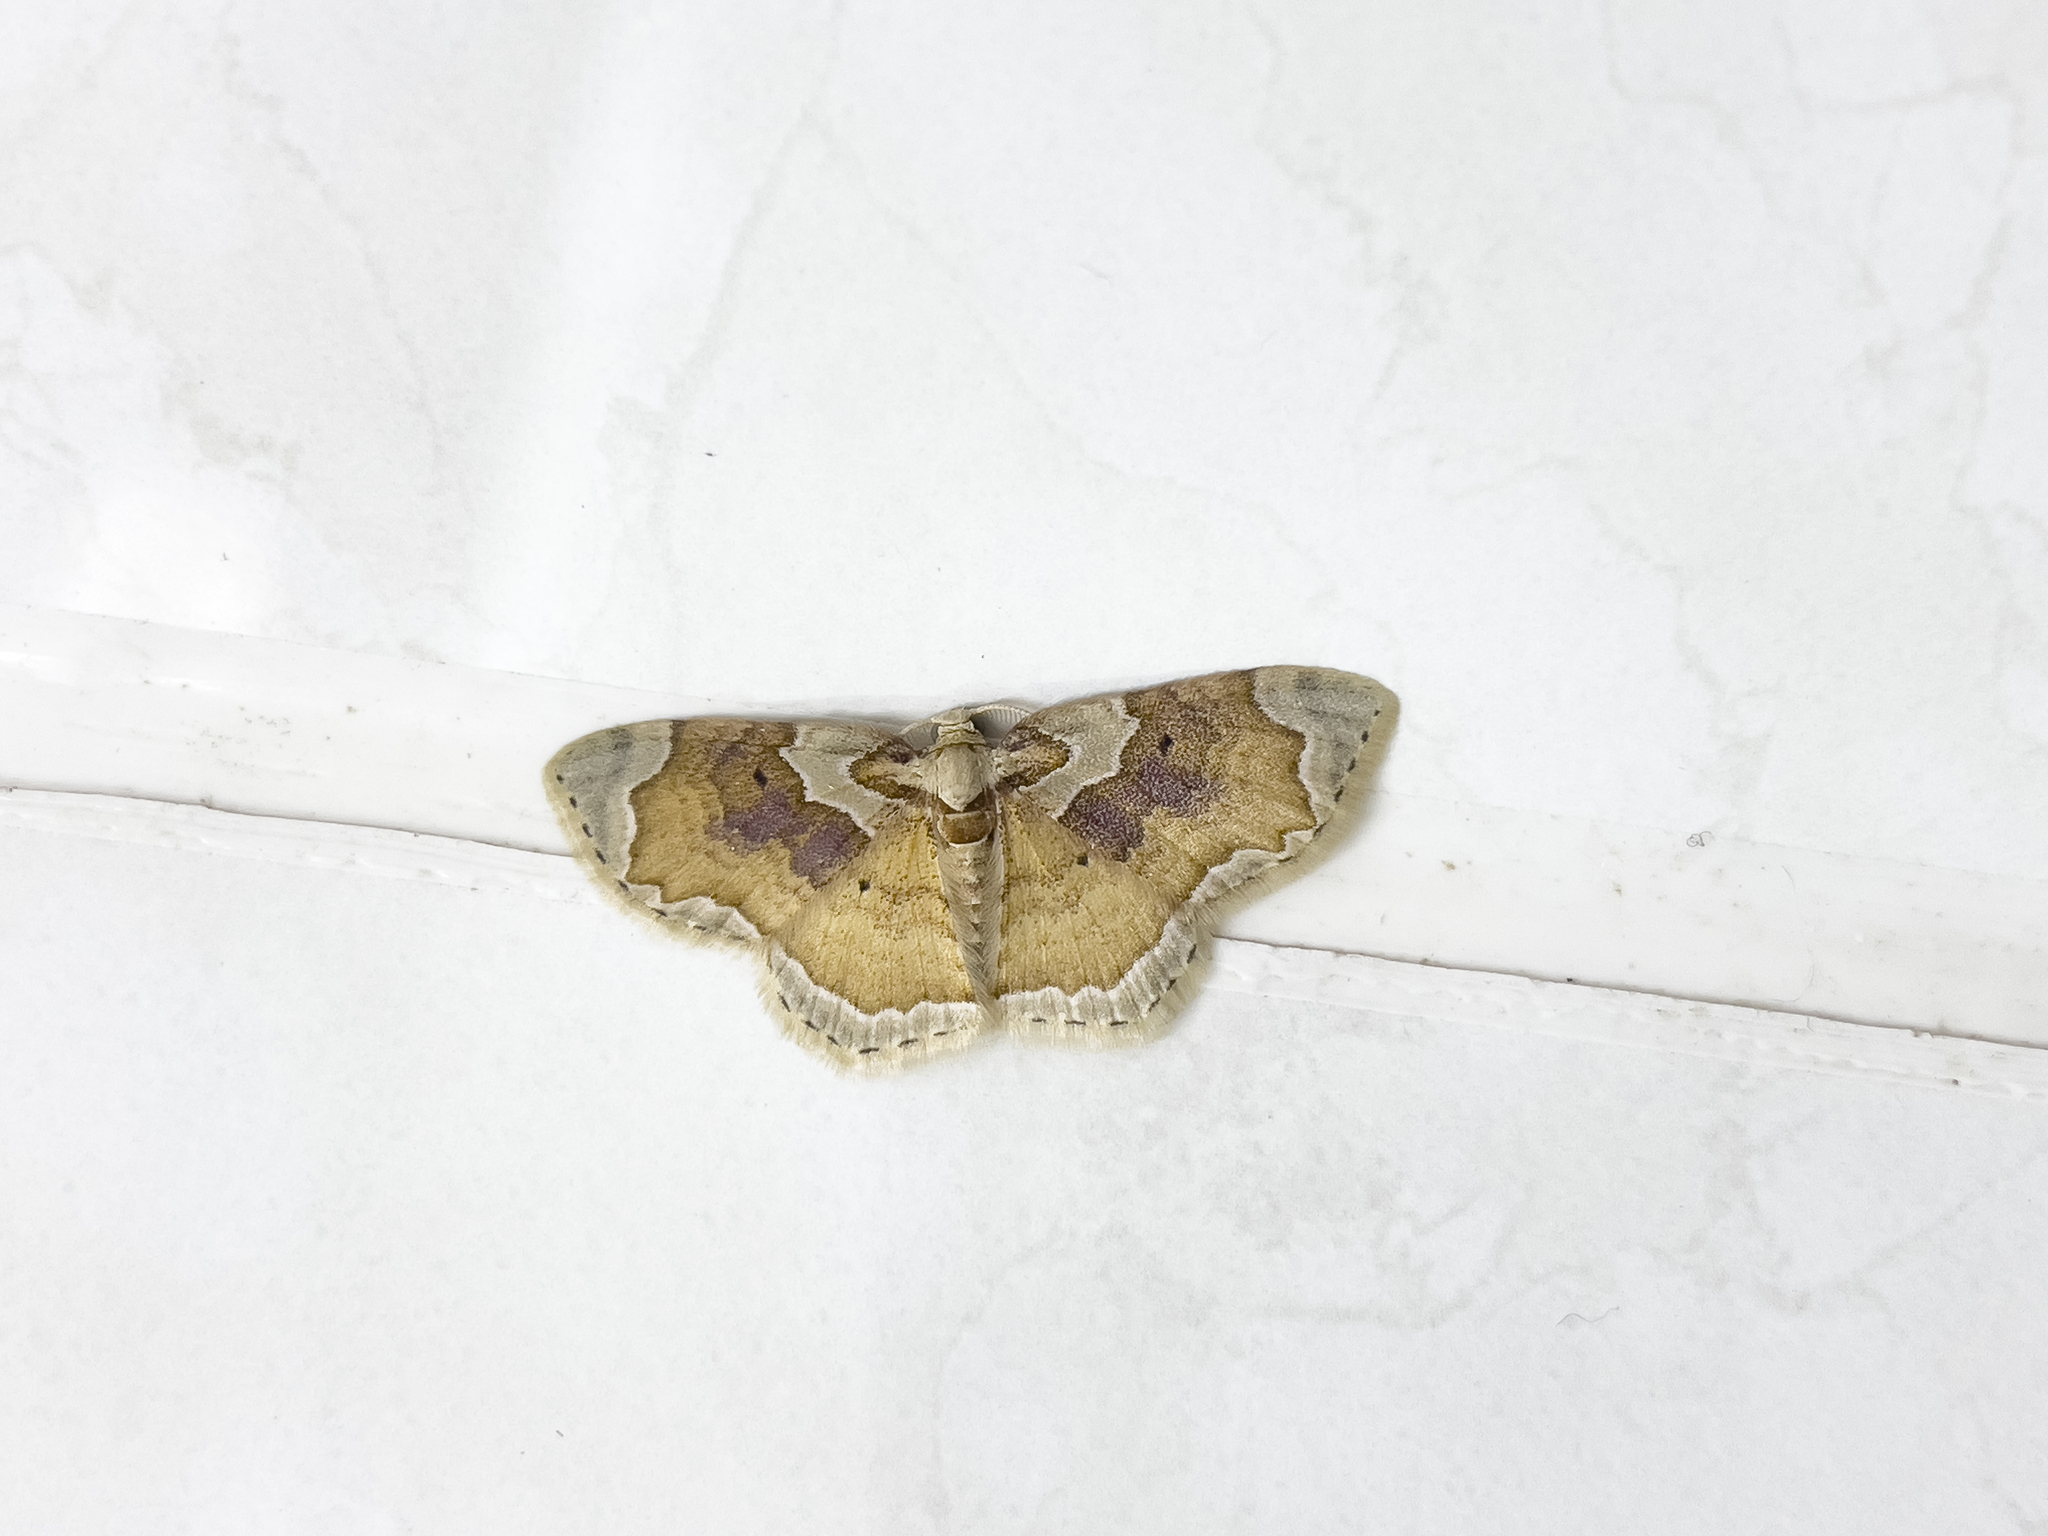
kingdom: Animalia
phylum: Arthropoda
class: Insecta
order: Lepidoptera
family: Geometridae
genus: Palpoctenidia
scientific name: Palpoctenidia phoenicosoma
